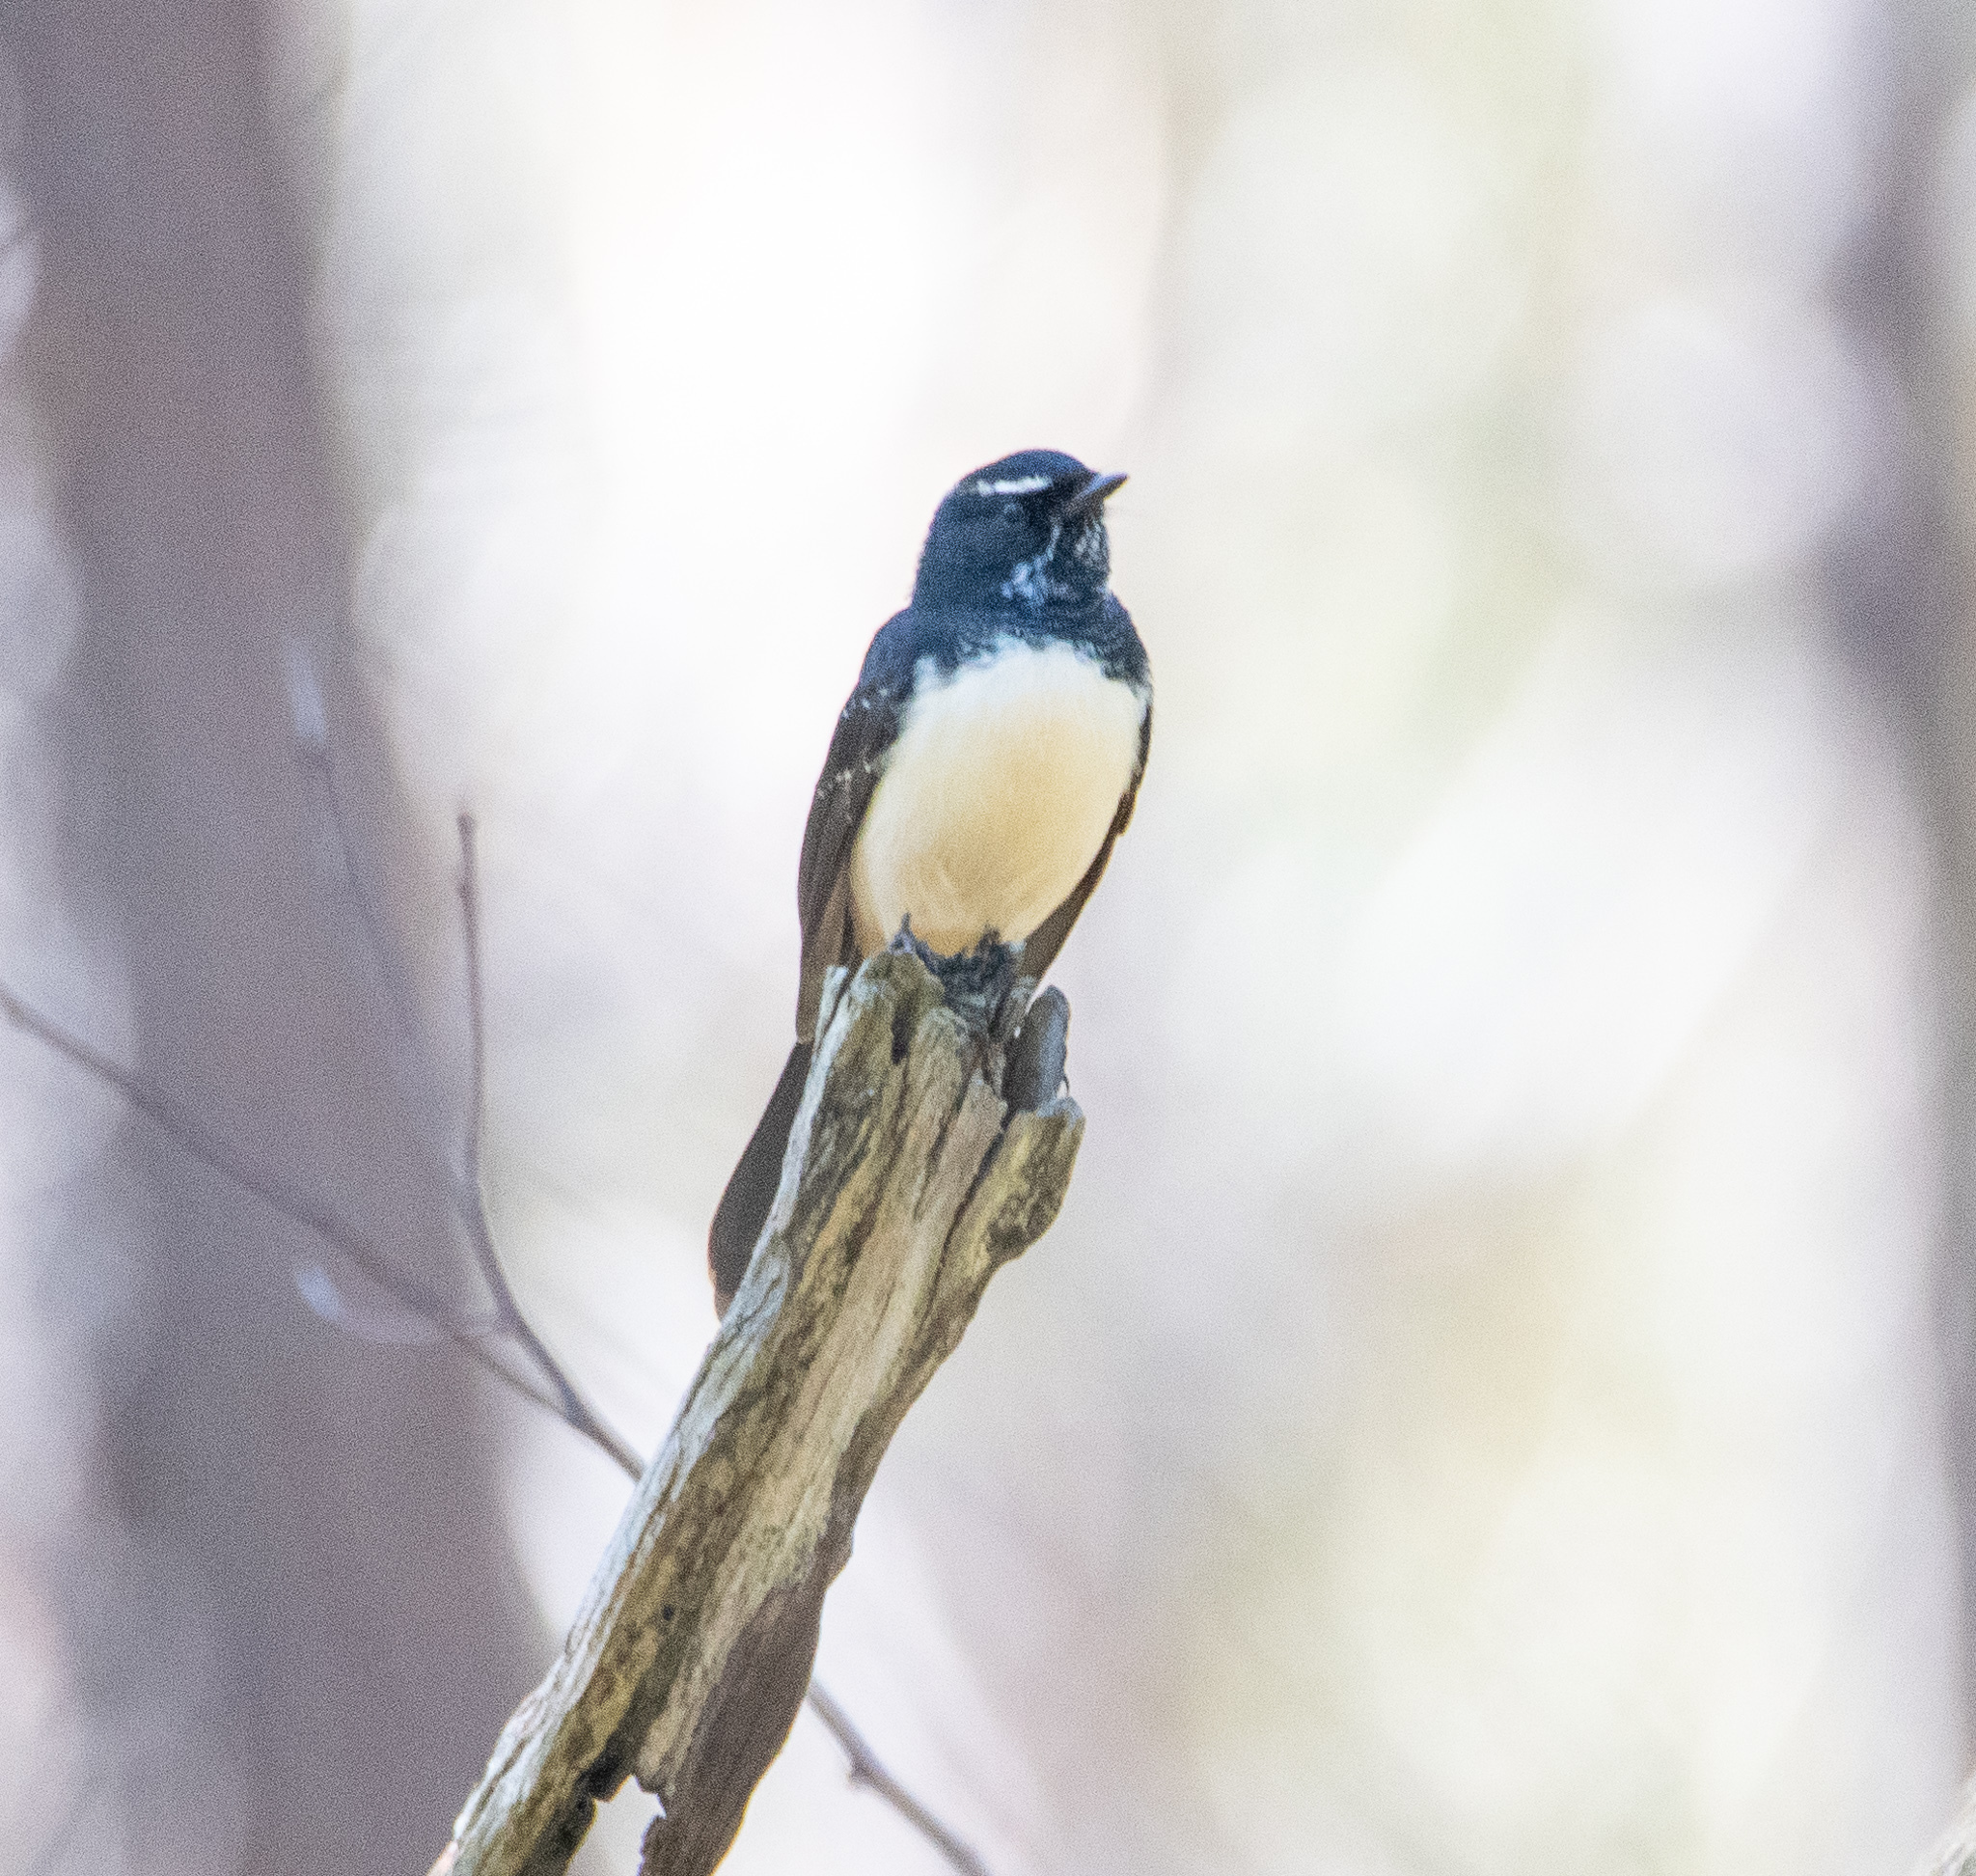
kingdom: Animalia
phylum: Chordata
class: Aves
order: Passeriformes
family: Rhipiduridae
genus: Rhipidura
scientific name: Rhipidura leucophrys
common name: Willie wagtail
